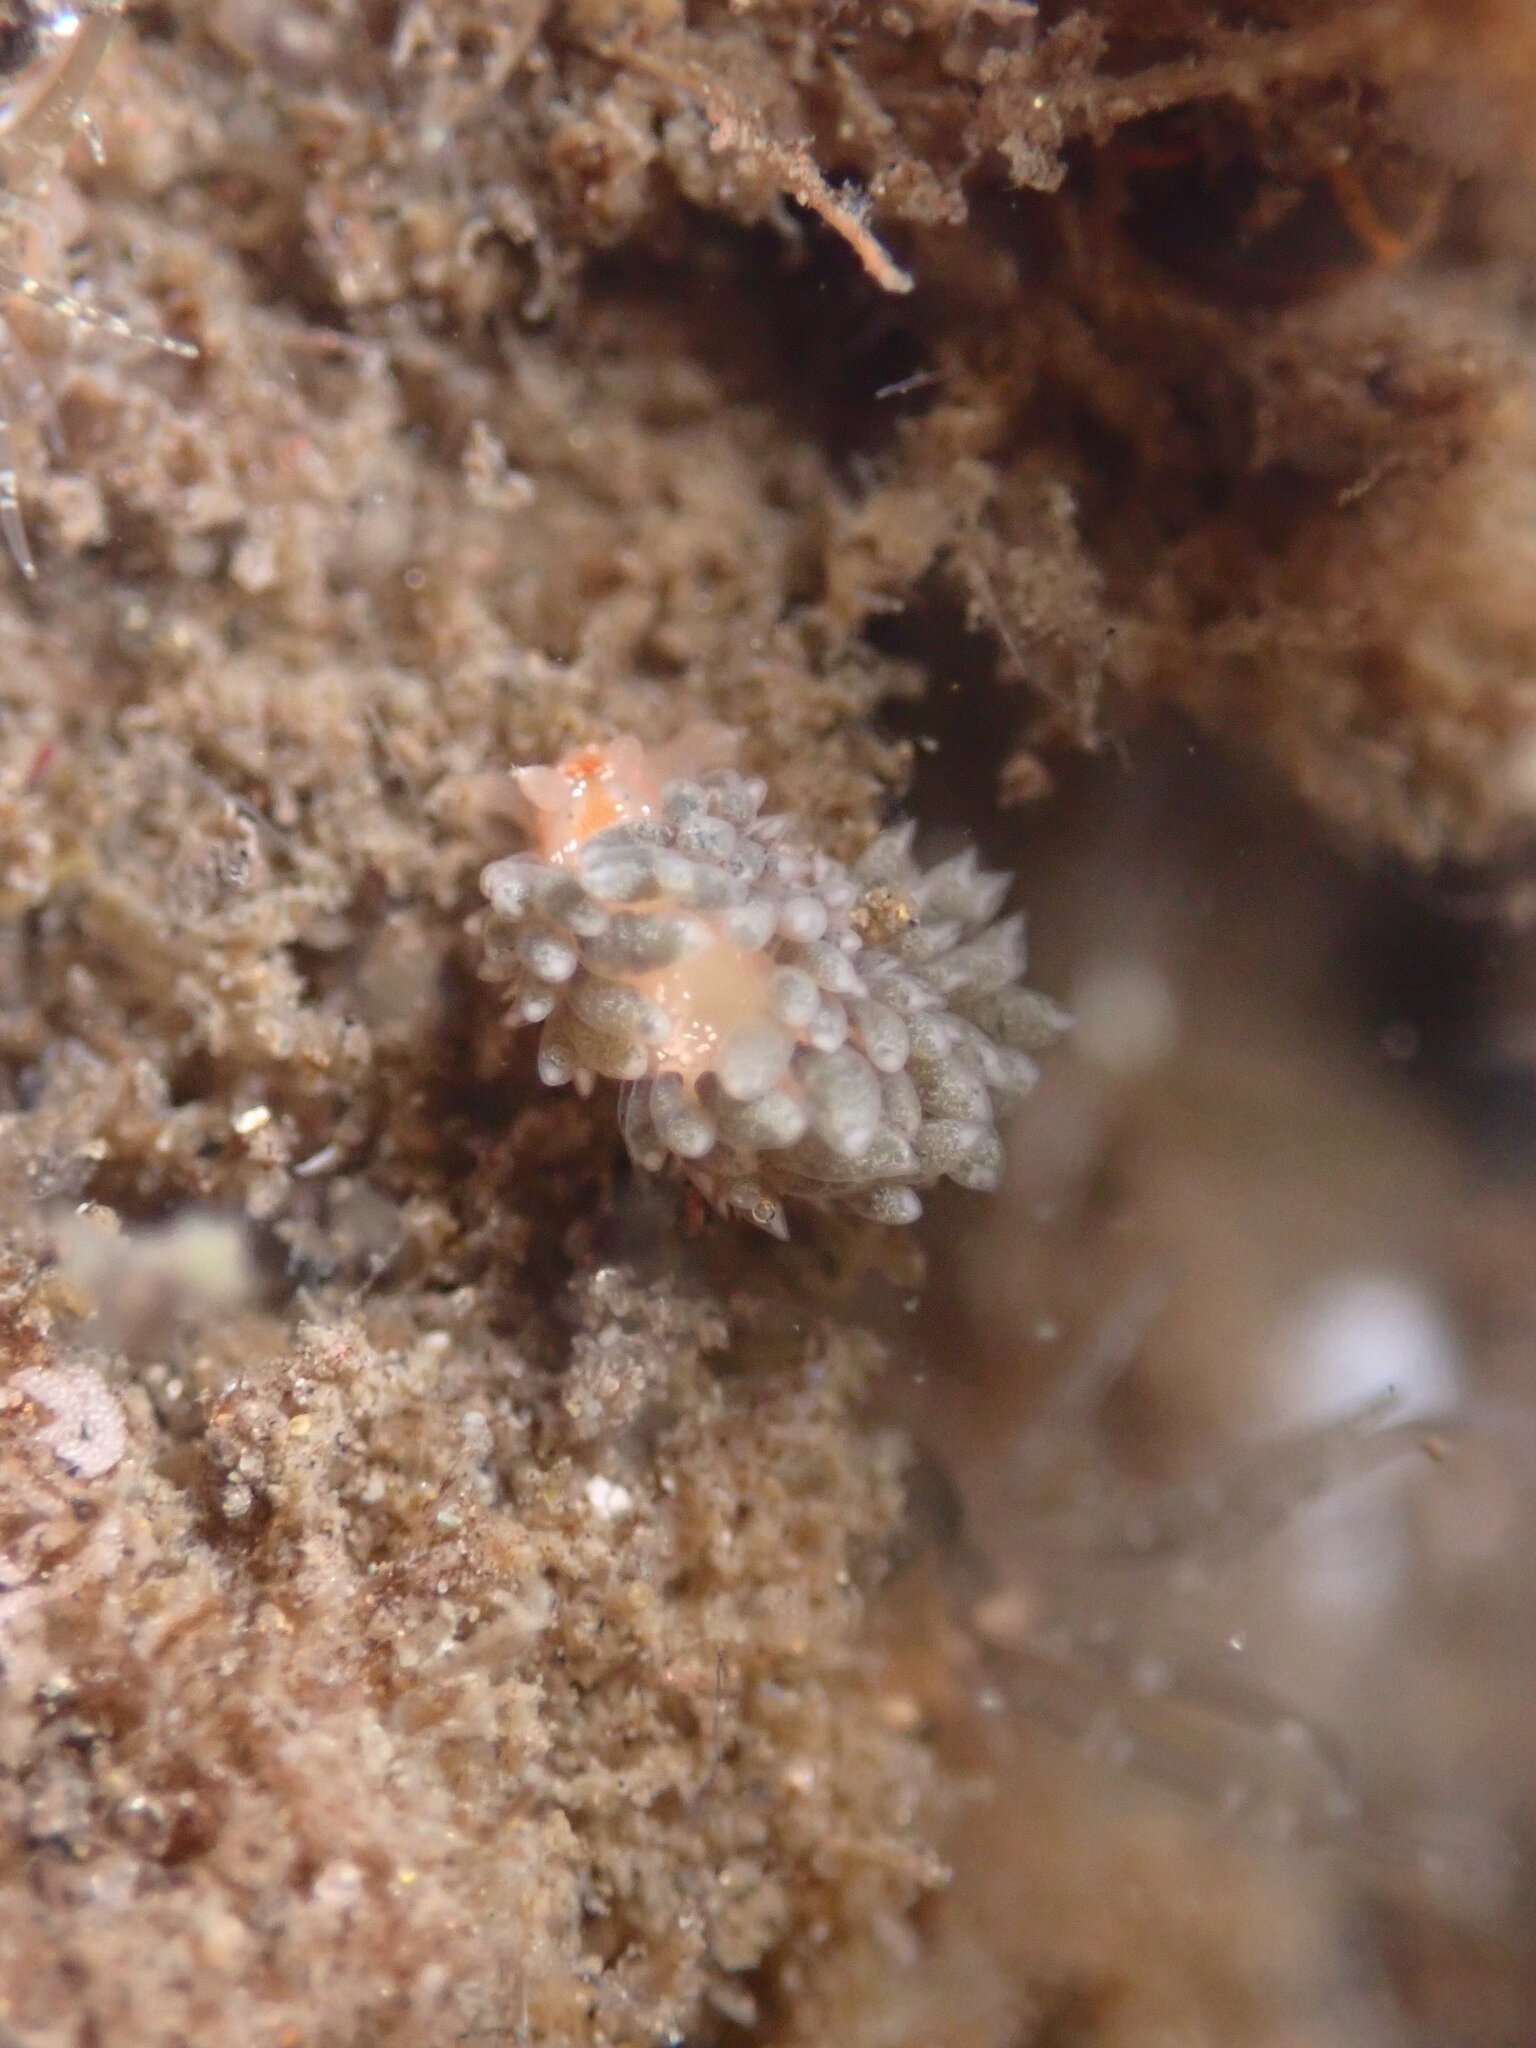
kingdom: Animalia
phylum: Mollusca
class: Gastropoda
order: Nudibranchia
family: Facelinidae
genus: Emarcusia
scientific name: Emarcusia morroensis
